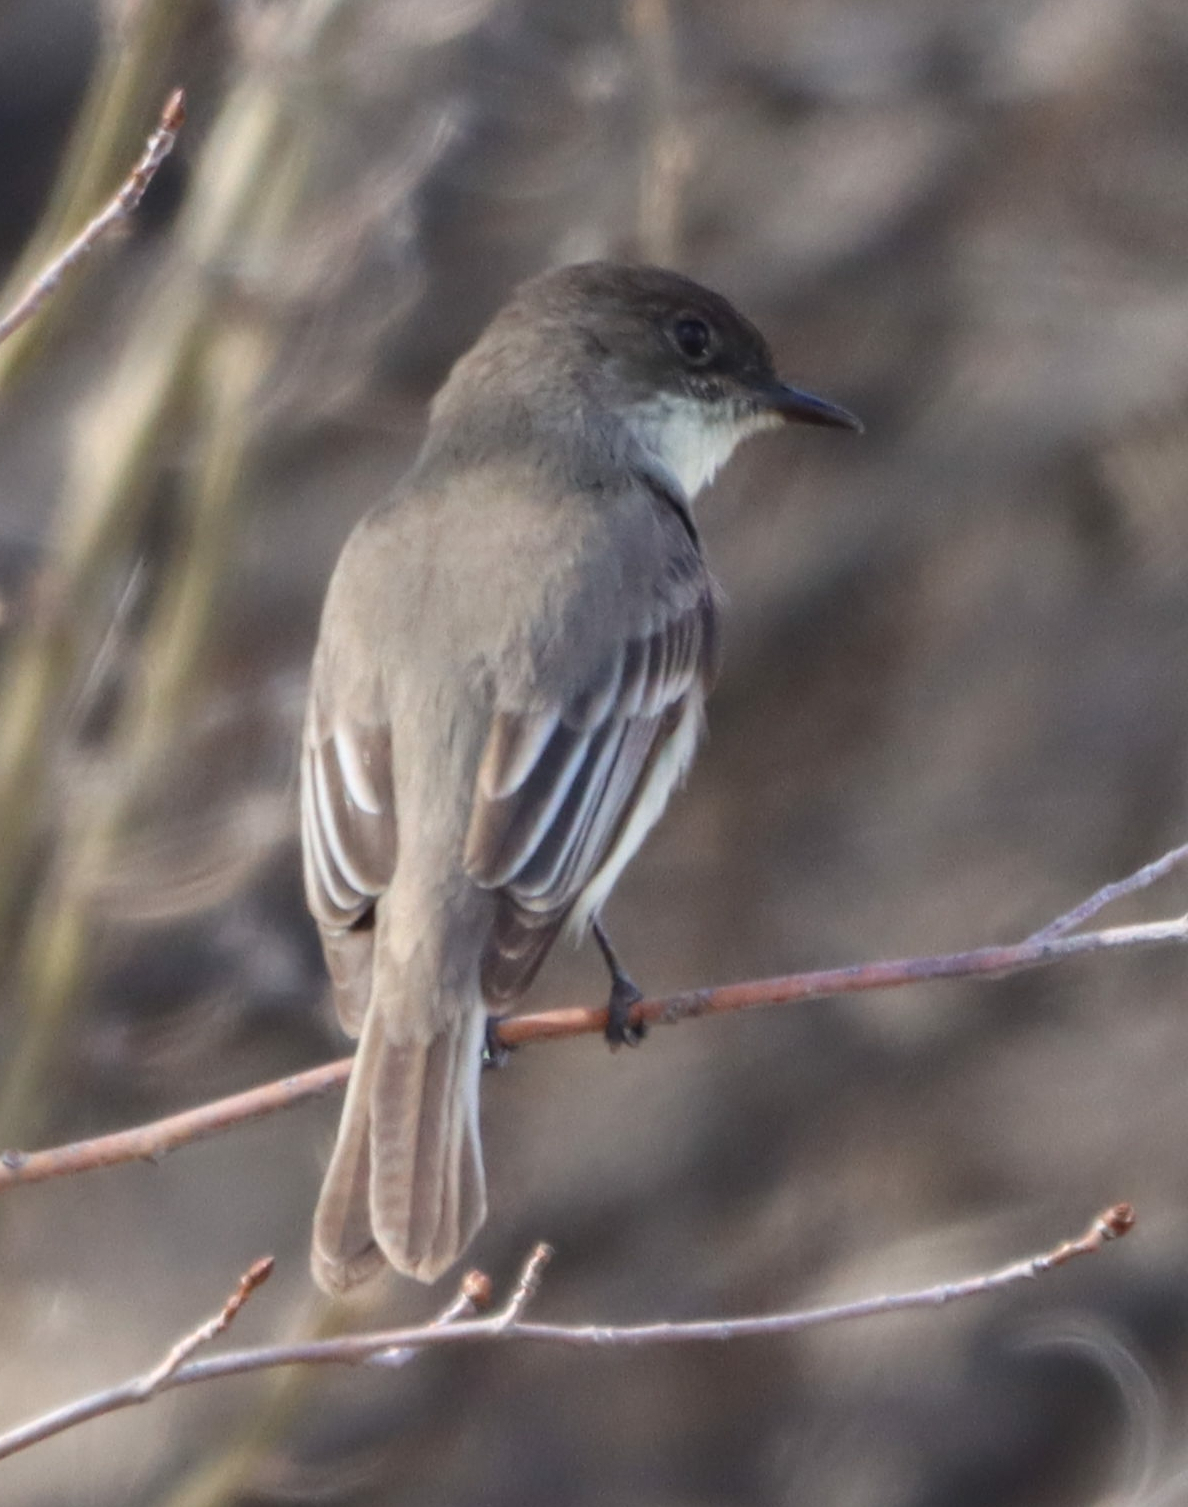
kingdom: Animalia
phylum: Chordata
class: Aves
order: Passeriformes
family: Tyrannidae
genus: Sayornis
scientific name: Sayornis phoebe
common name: Eastern phoebe
